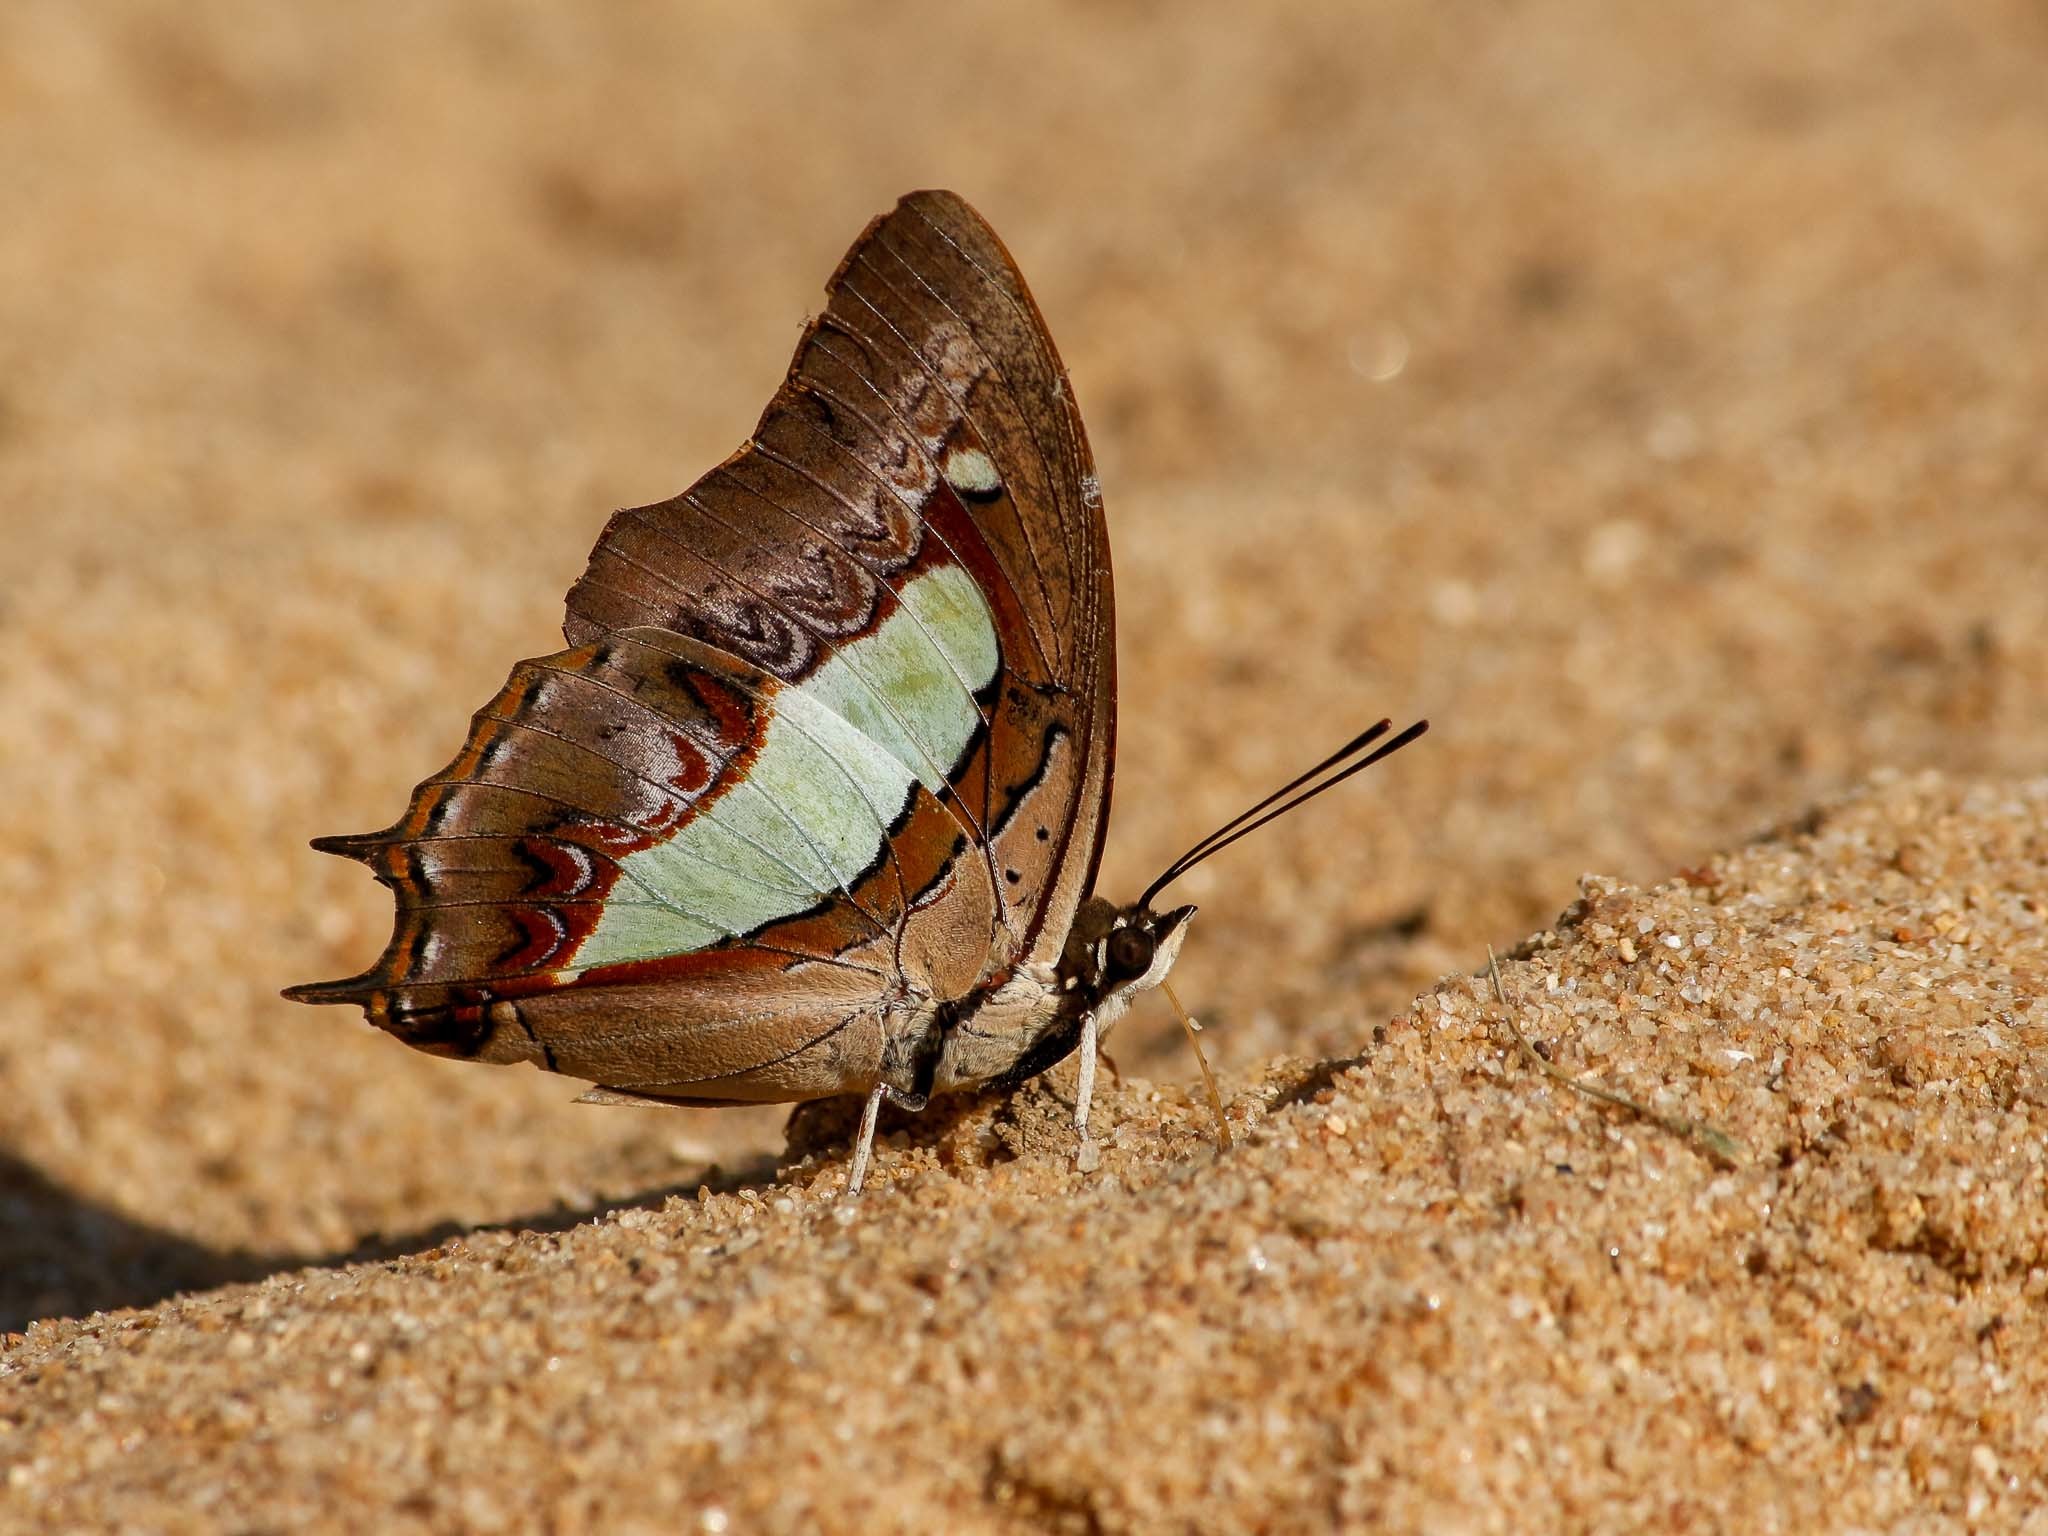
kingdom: Animalia
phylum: Arthropoda
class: Insecta
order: Lepidoptera
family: Nymphalidae
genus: Polyura
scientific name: Polyura
